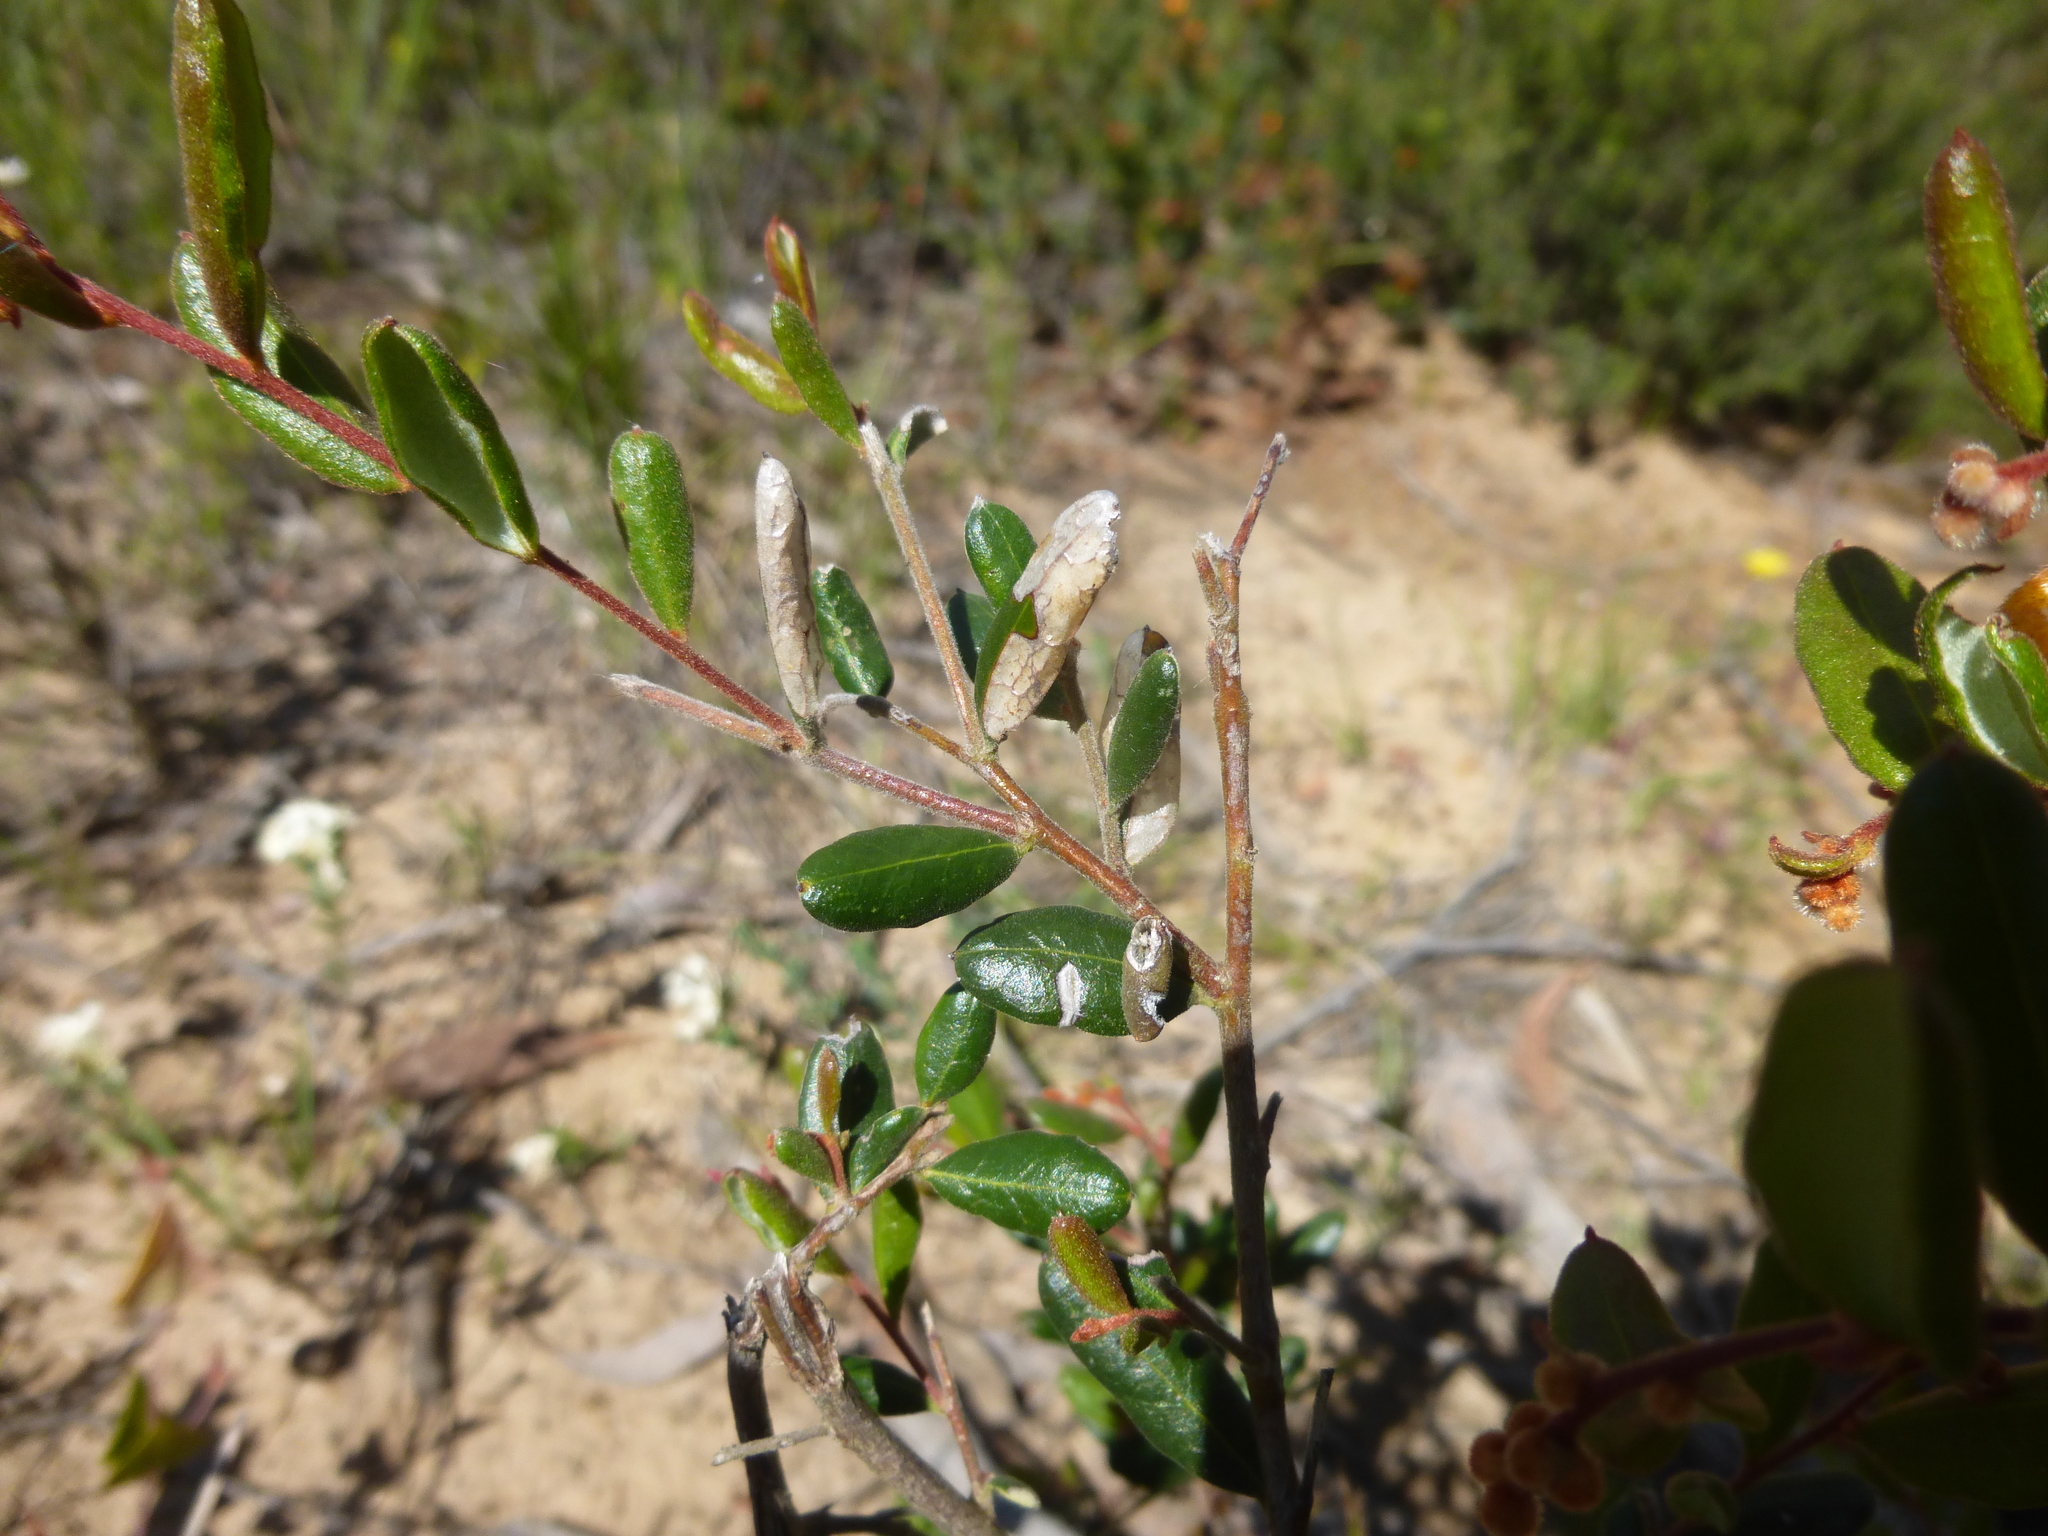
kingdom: Plantae
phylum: Tracheophyta
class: Magnoliopsida
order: Proteales
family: Proteaceae
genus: Grevillea
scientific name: Grevillea chrysophaea
